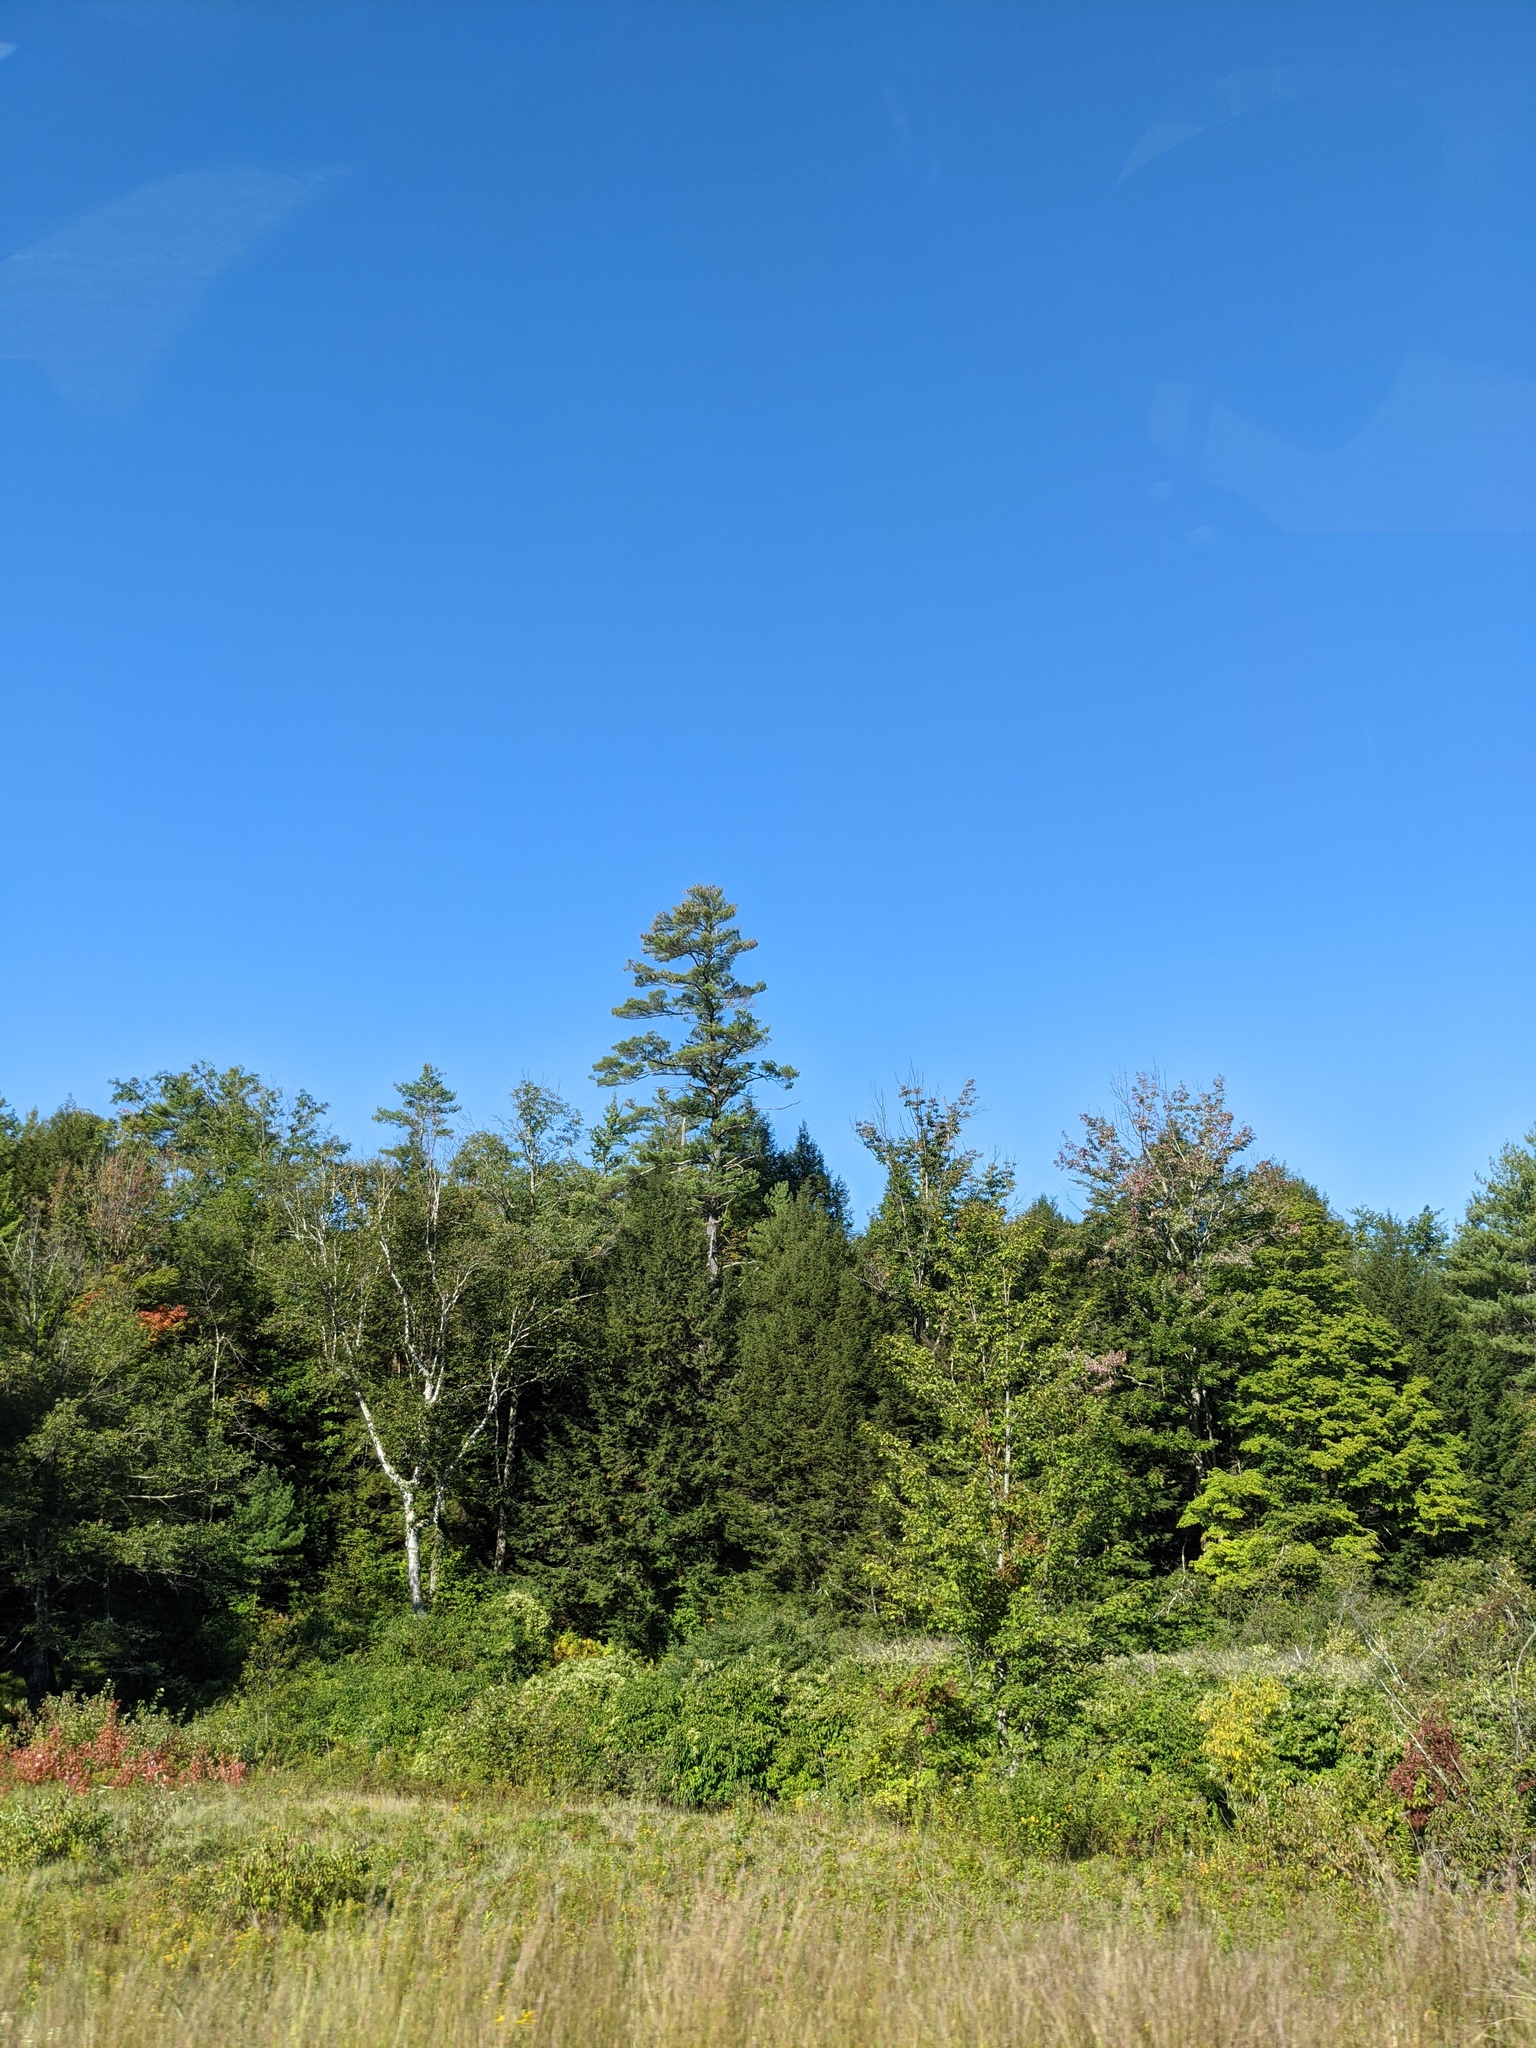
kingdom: Plantae
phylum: Tracheophyta
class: Pinopsida
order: Pinales
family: Pinaceae
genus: Pinus
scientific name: Pinus strobus
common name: Weymouth pine
